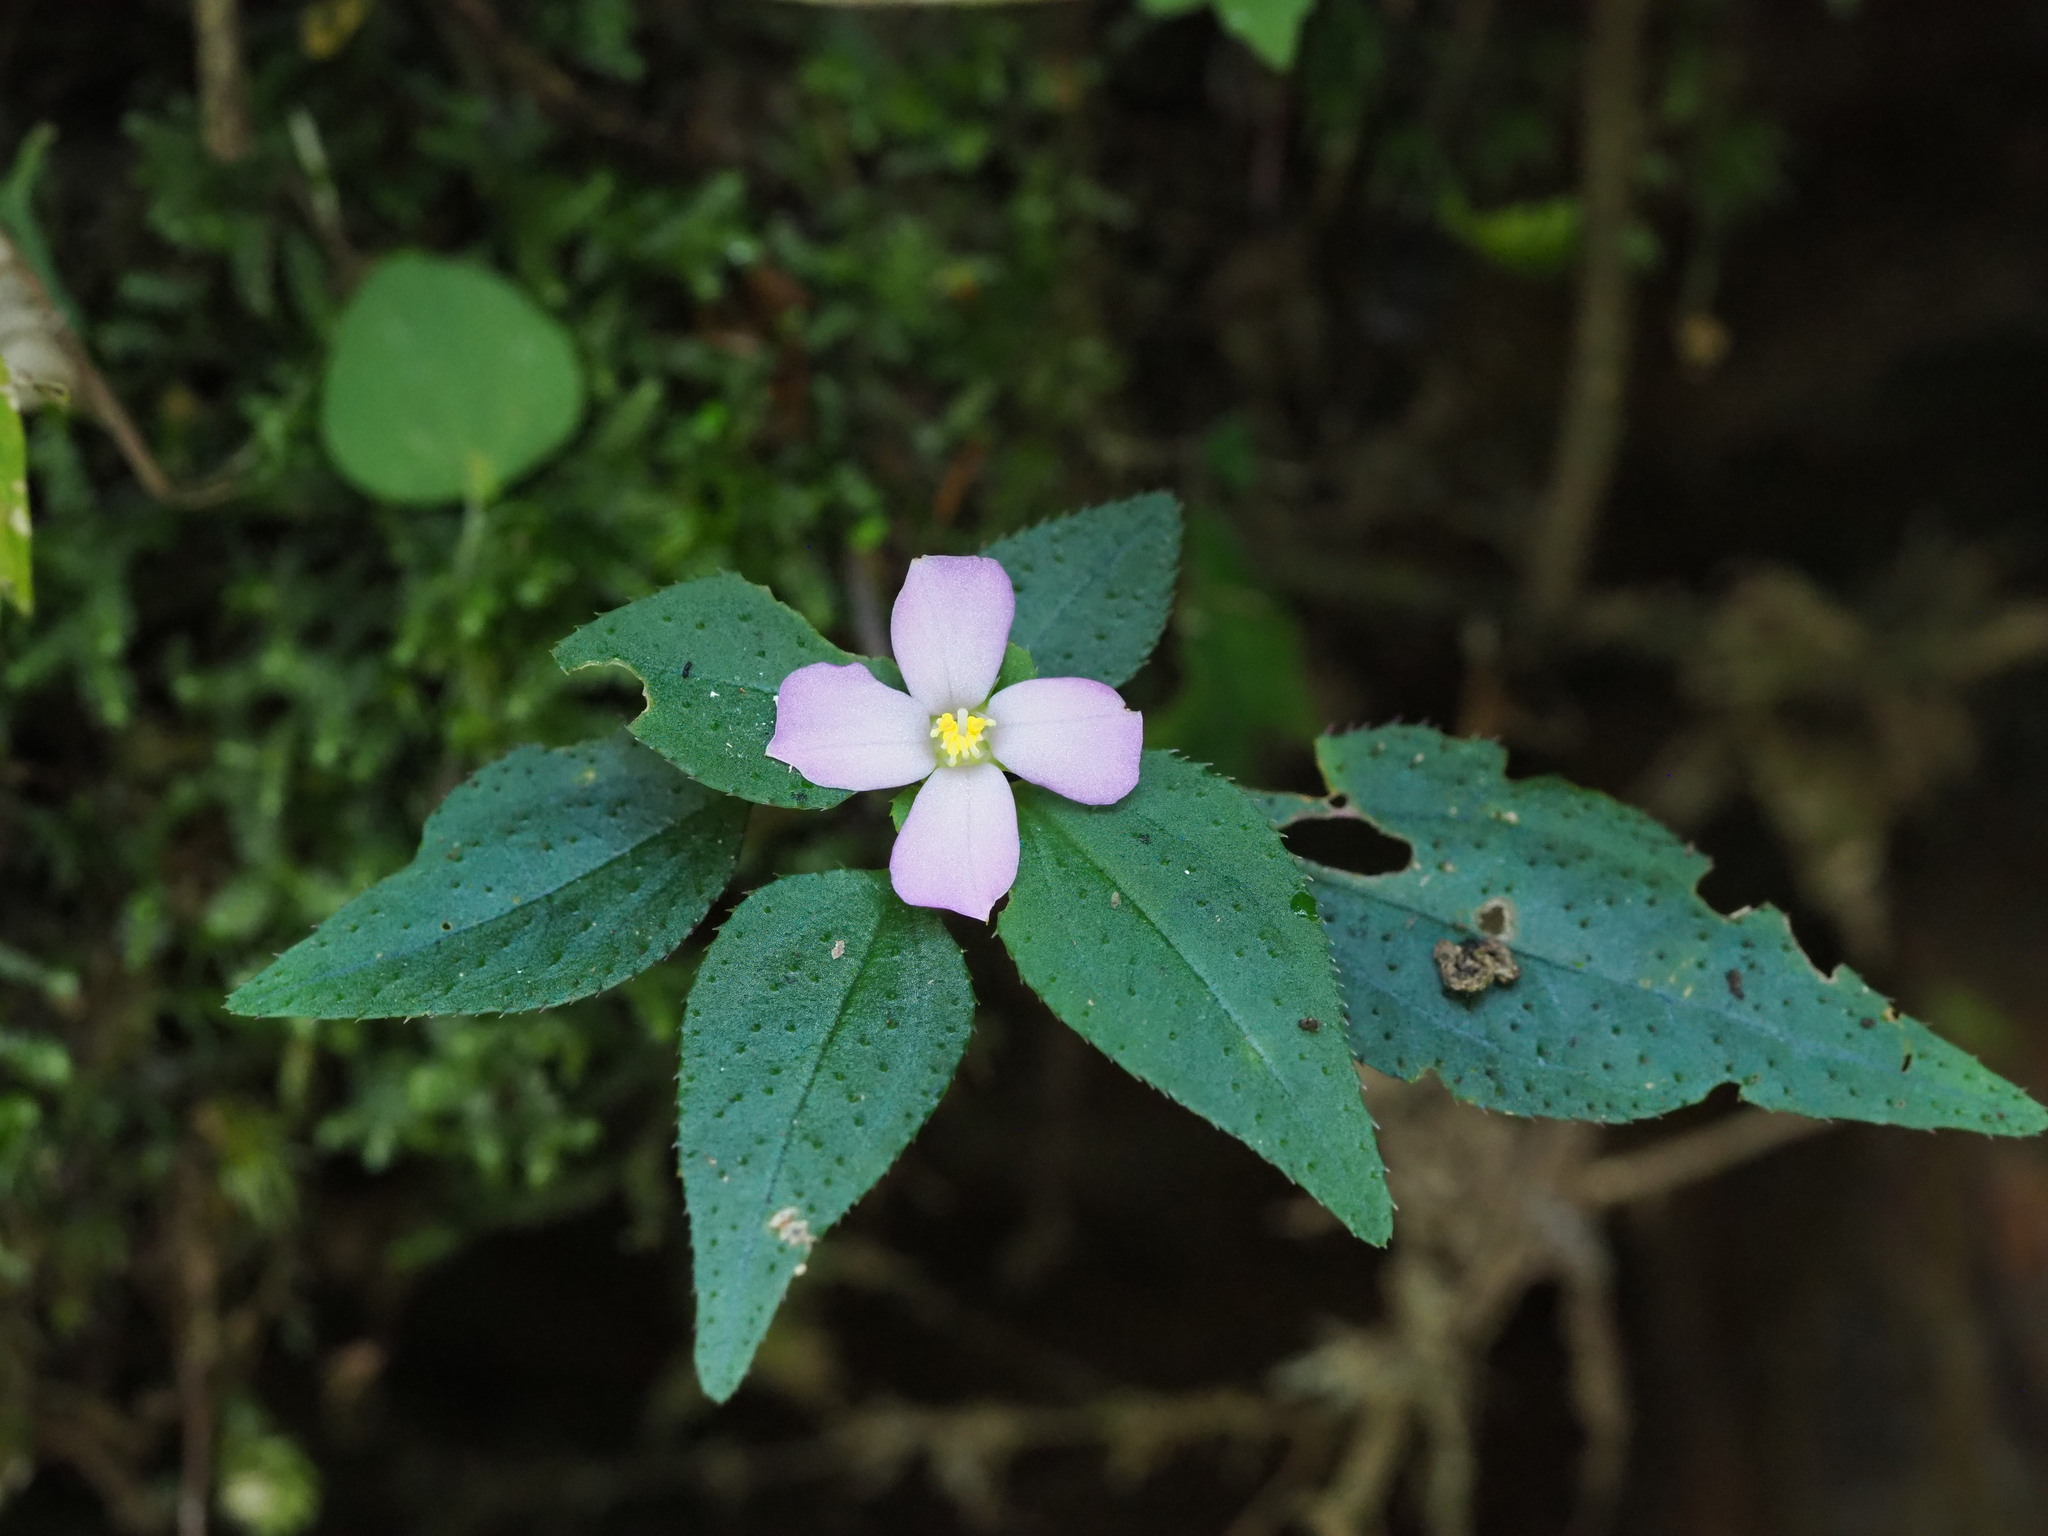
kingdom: Plantae
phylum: Tracheophyta
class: Magnoliopsida
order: Myrtales
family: Melastomataceae
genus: Sarcopyramis
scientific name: Sarcopyramis napalensis
